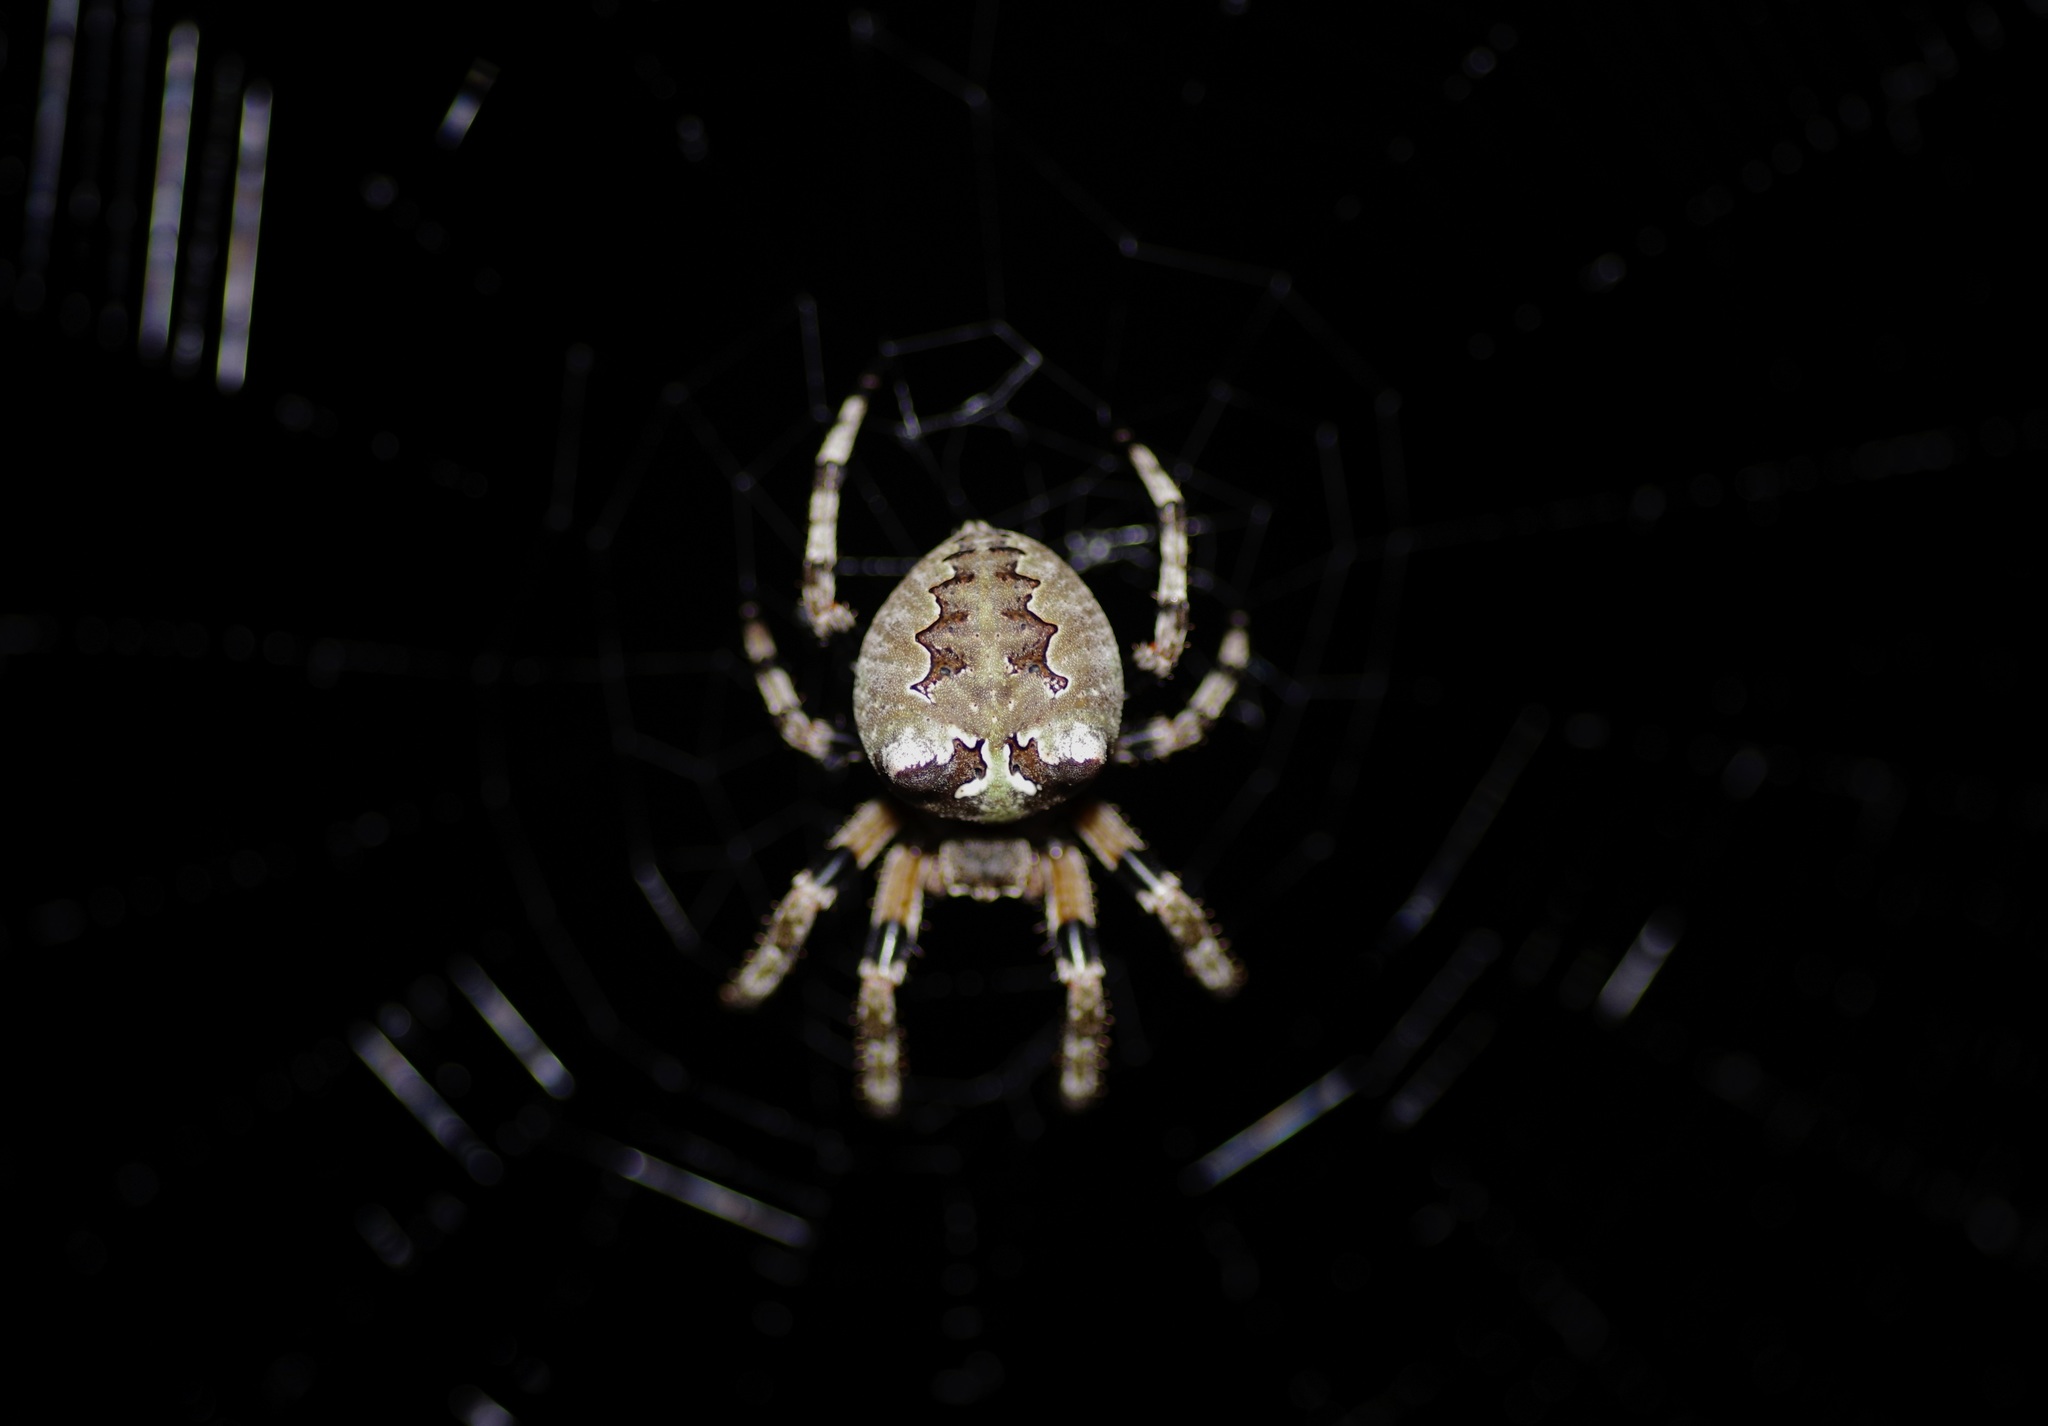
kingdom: Animalia
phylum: Arthropoda
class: Arachnida
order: Araneae
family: Araneidae
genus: Araneus
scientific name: Araneus bicentenarius
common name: Giant lichen orbweaver
